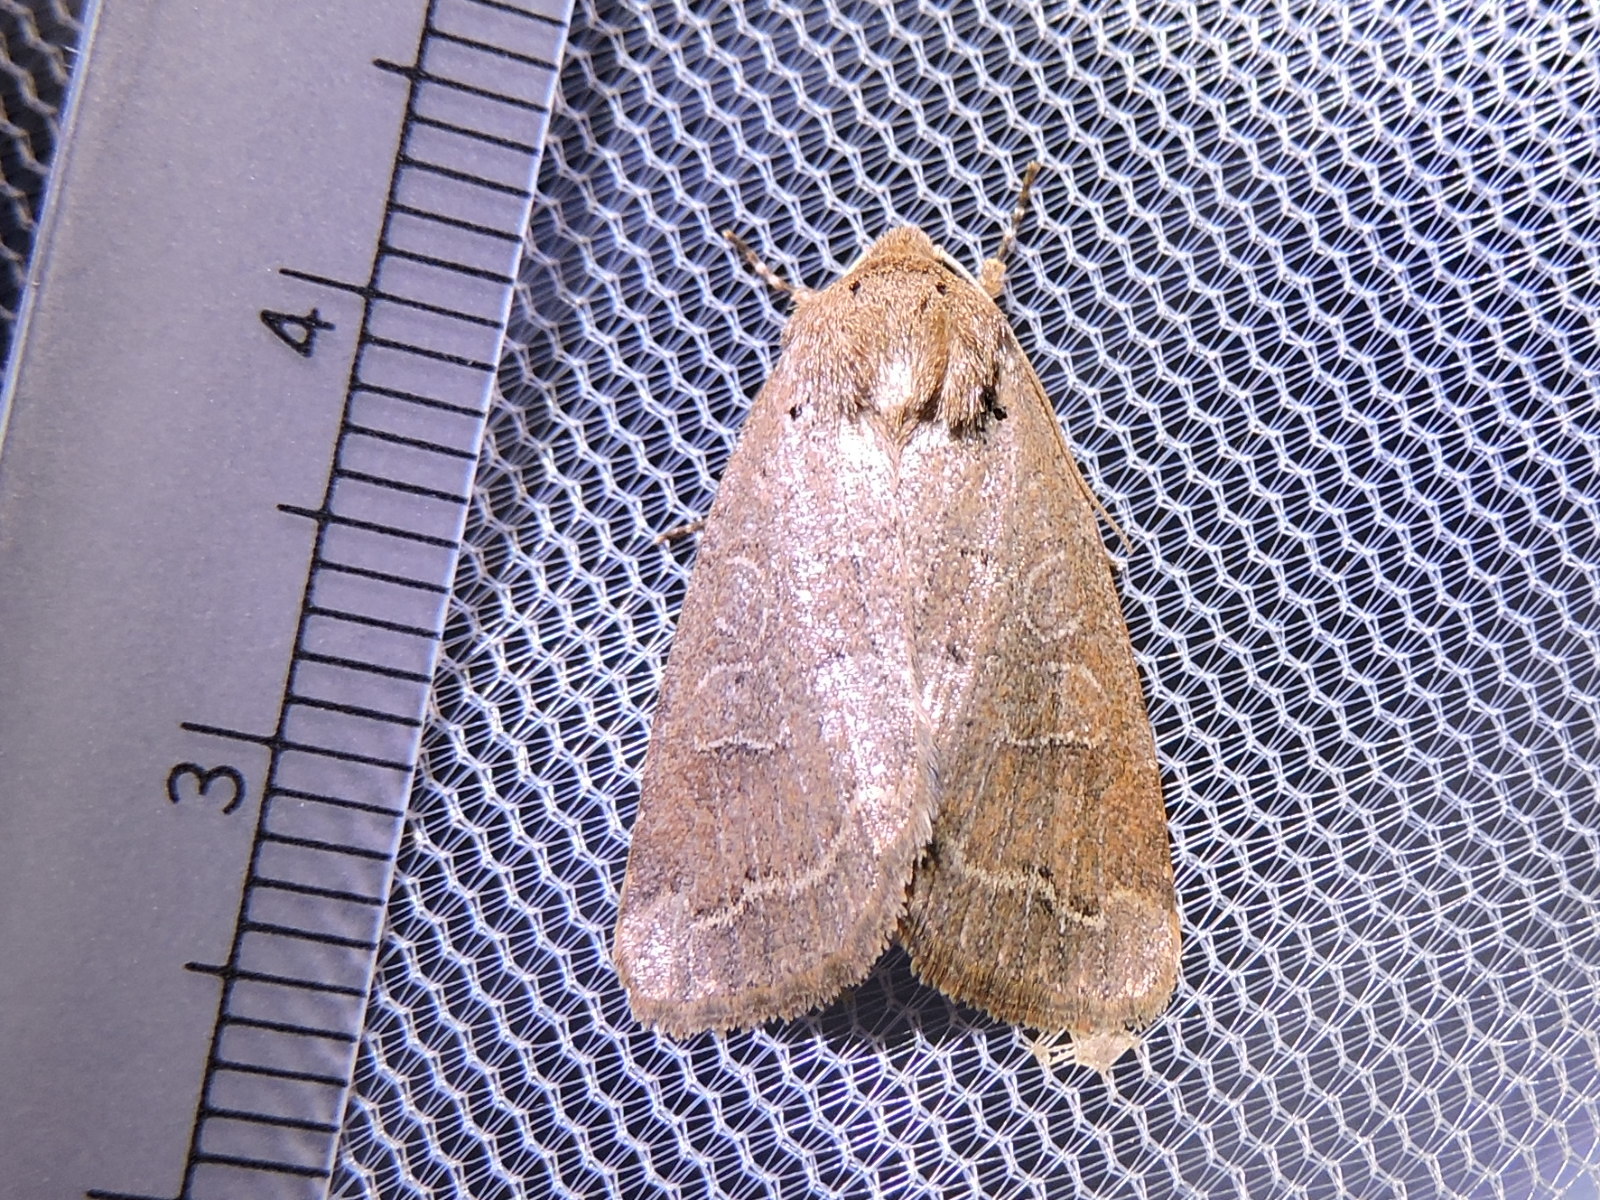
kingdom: Animalia
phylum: Arthropoda
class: Insecta
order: Lepidoptera
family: Noctuidae
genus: Kocakina
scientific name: Kocakina fidelis
